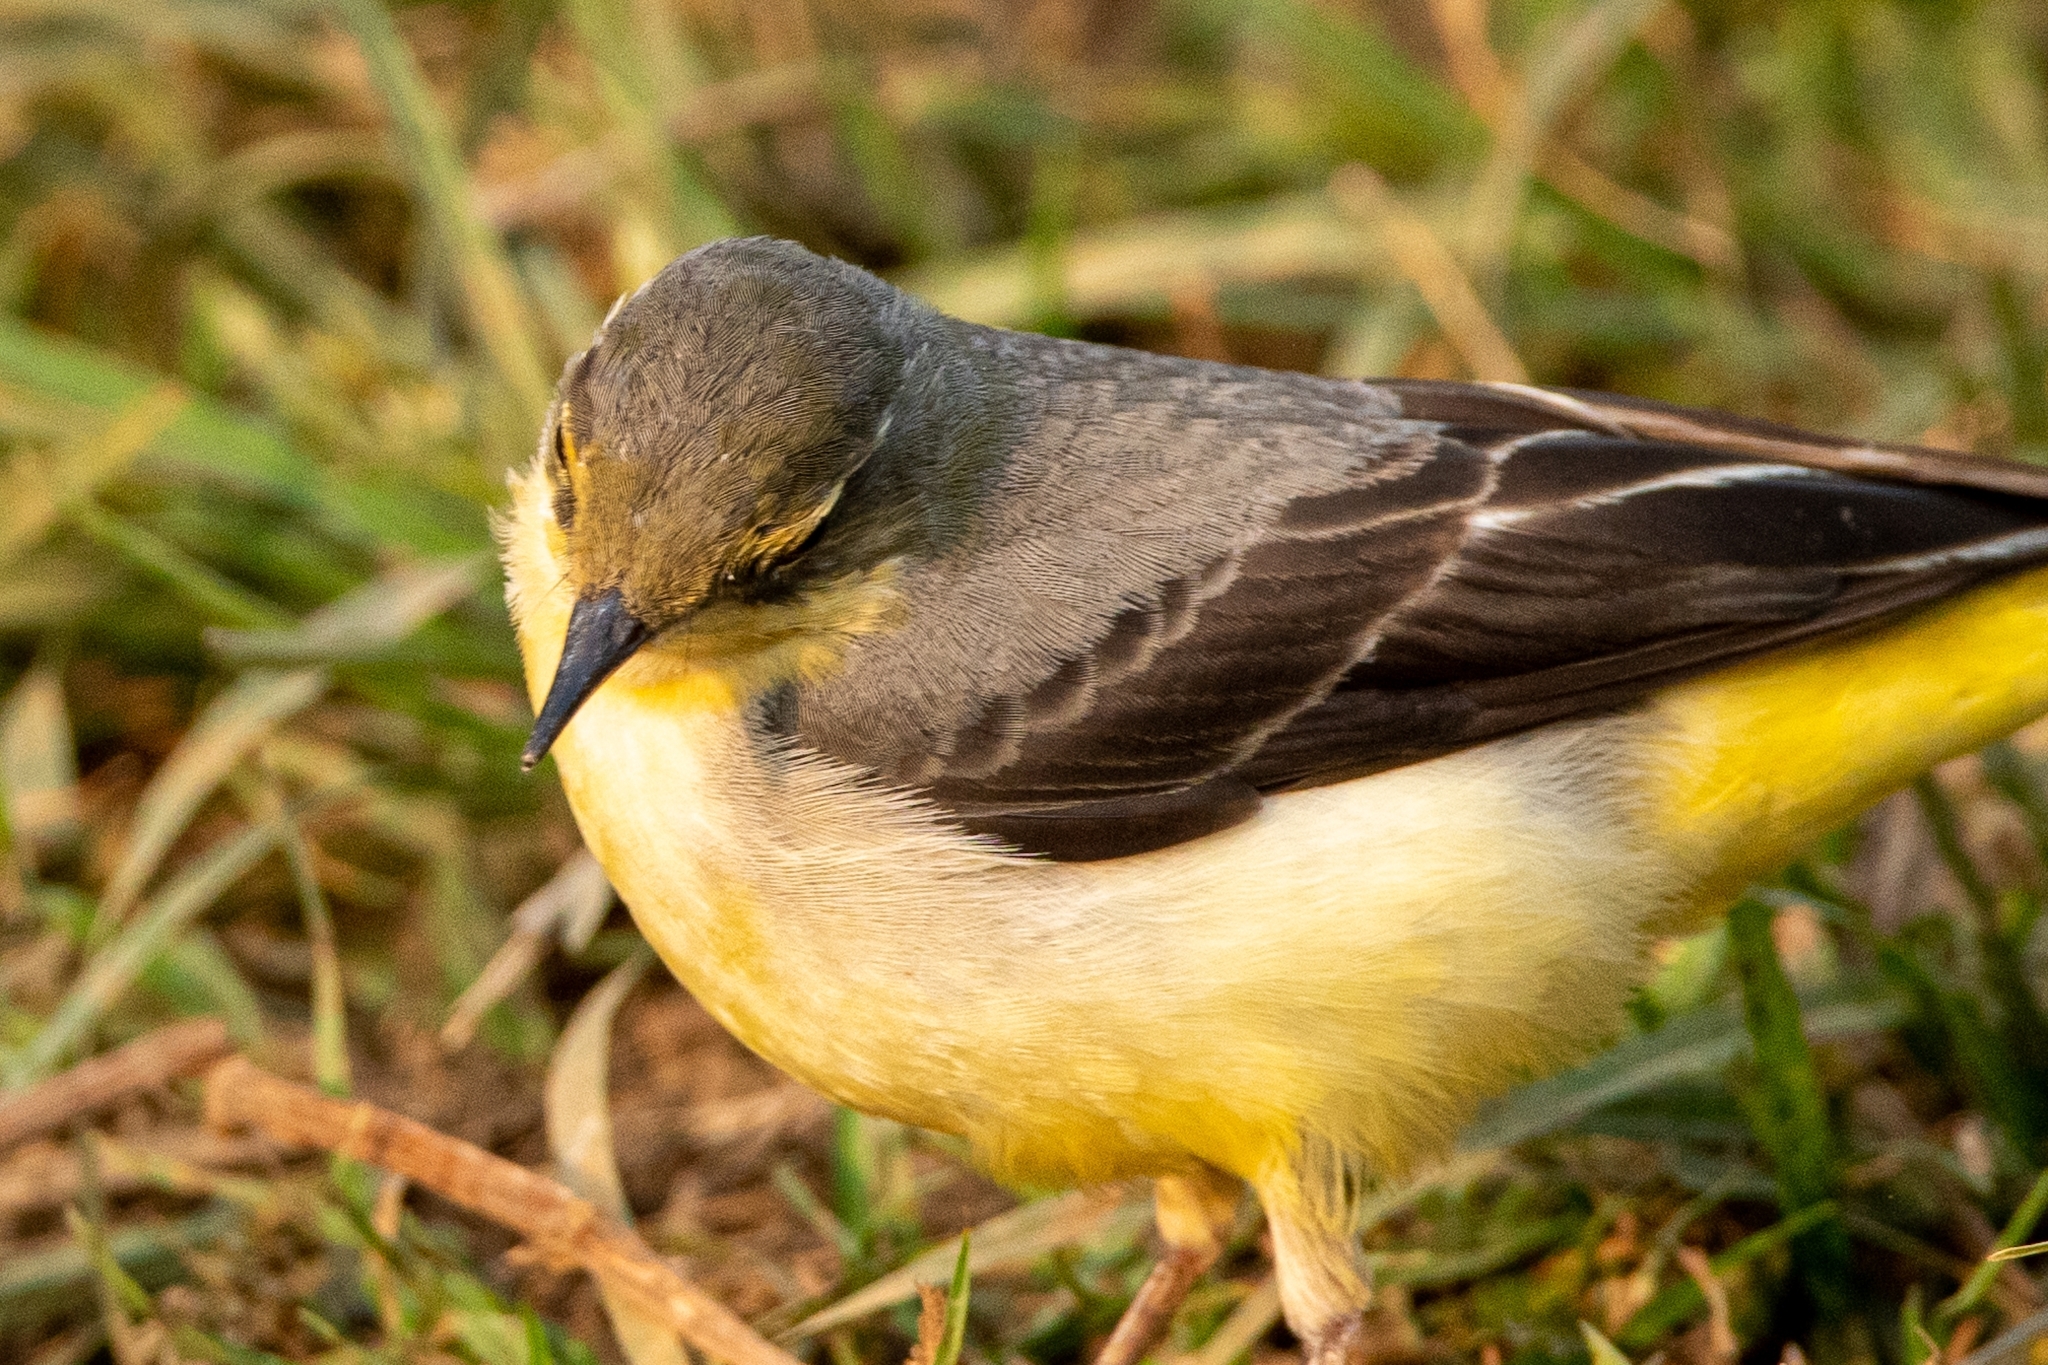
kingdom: Animalia
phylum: Chordata
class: Aves
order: Passeriformes
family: Motacillidae
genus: Motacilla
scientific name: Motacilla cinerea
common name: Grey wagtail
